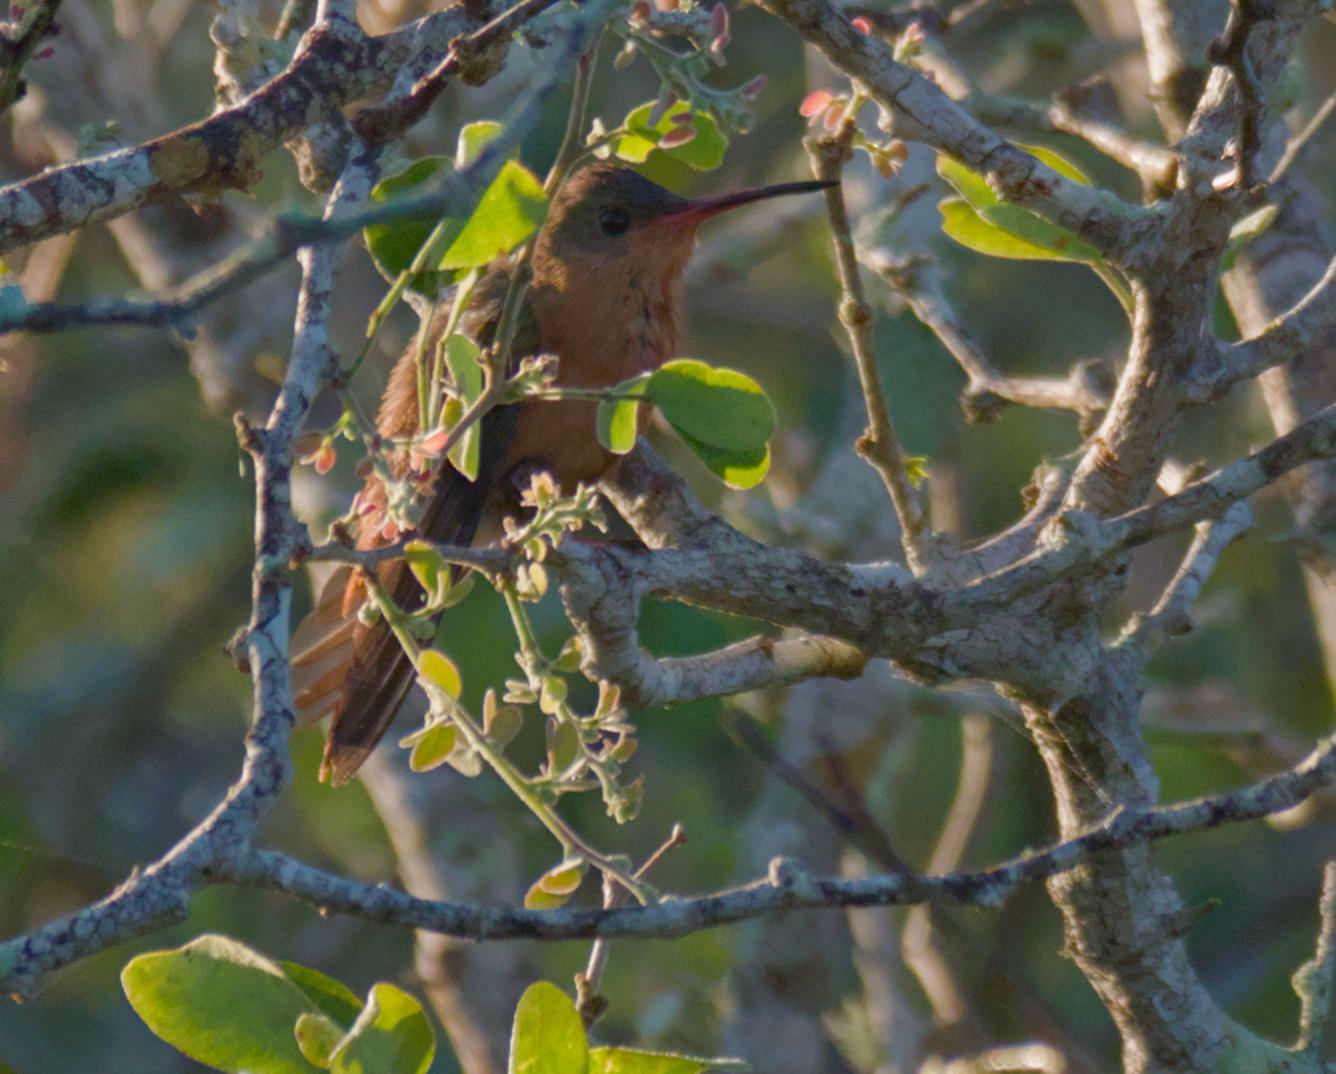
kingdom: Animalia
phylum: Chordata
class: Aves
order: Apodiformes
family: Trochilidae
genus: Amazilia
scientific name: Amazilia rutila
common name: Cinnamon hummingbird
